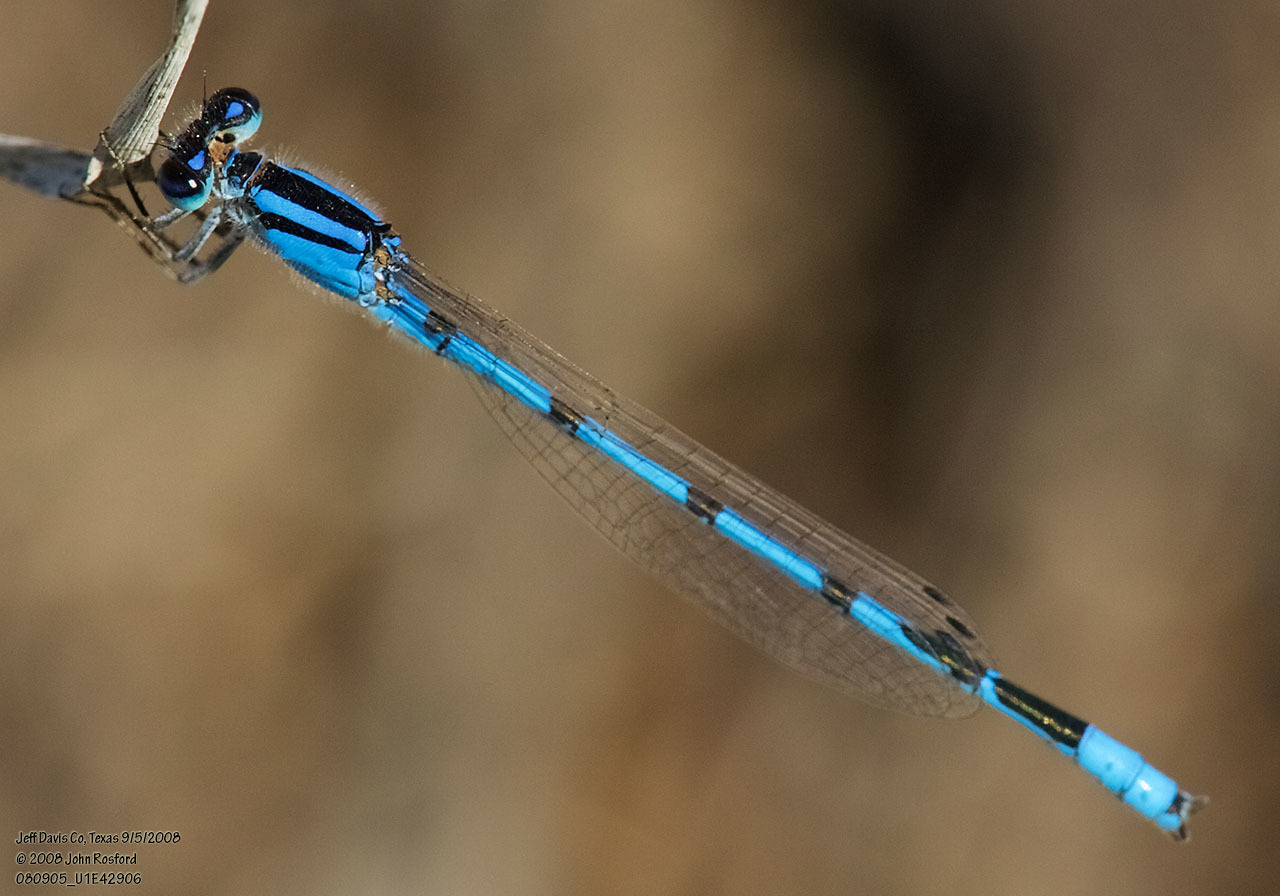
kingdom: Animalia
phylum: Arthropoda
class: Insecta
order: Odonata
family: Coenagrionidae
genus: Enallagma
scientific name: Enallagma civile
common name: Damselfly
